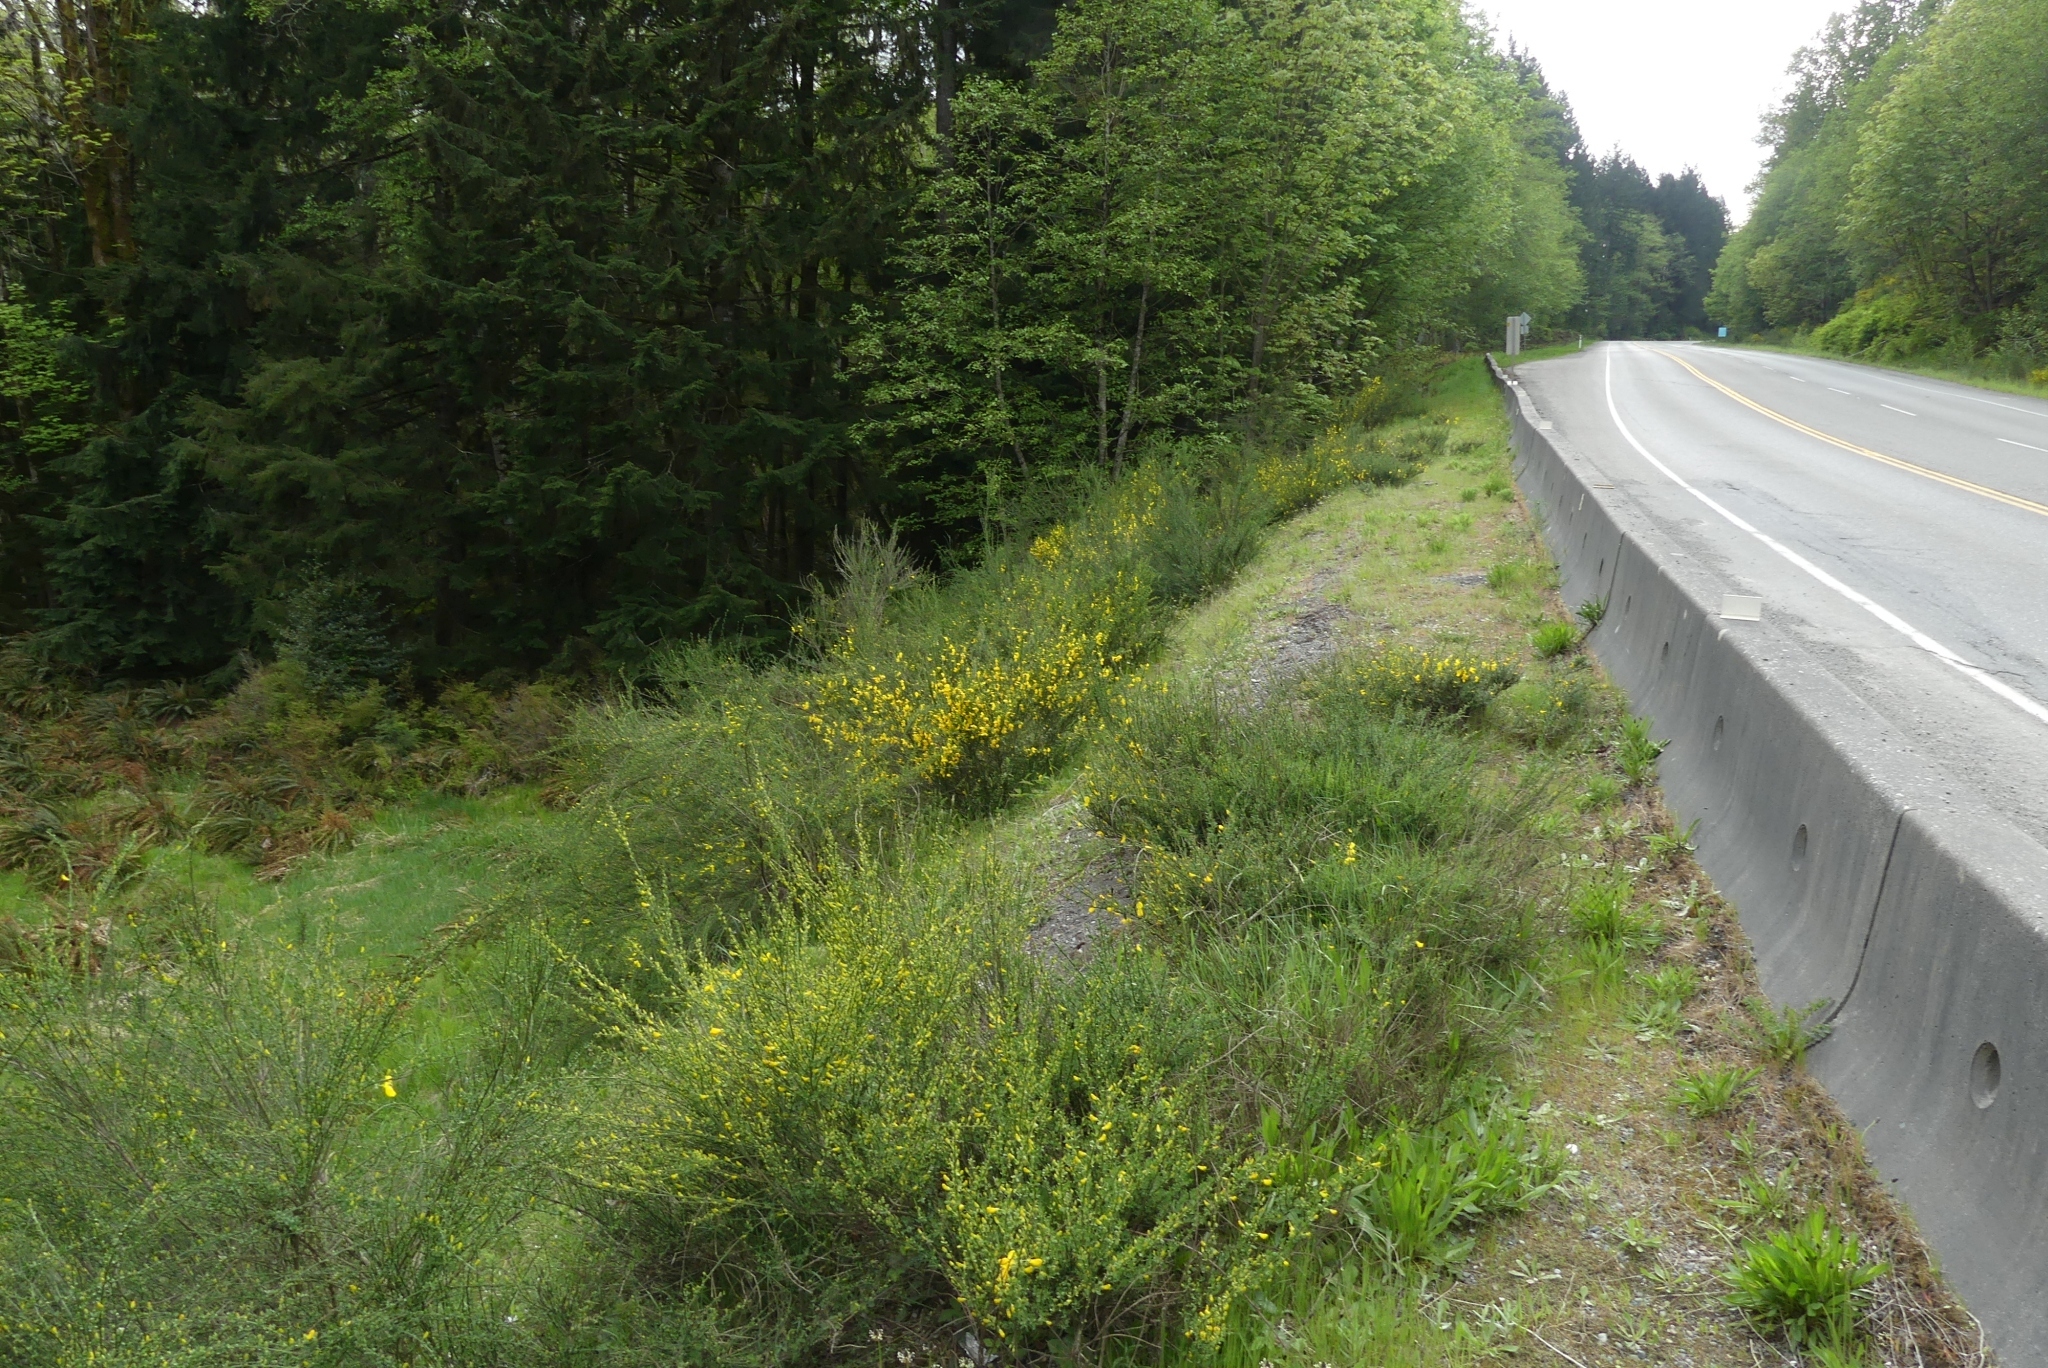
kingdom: Plantae
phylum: Tracheophyta
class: Magnoliopsida
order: Fabales
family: Fabaceae
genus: Cytisus
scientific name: Cytisus scoparius
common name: Scotch broom
